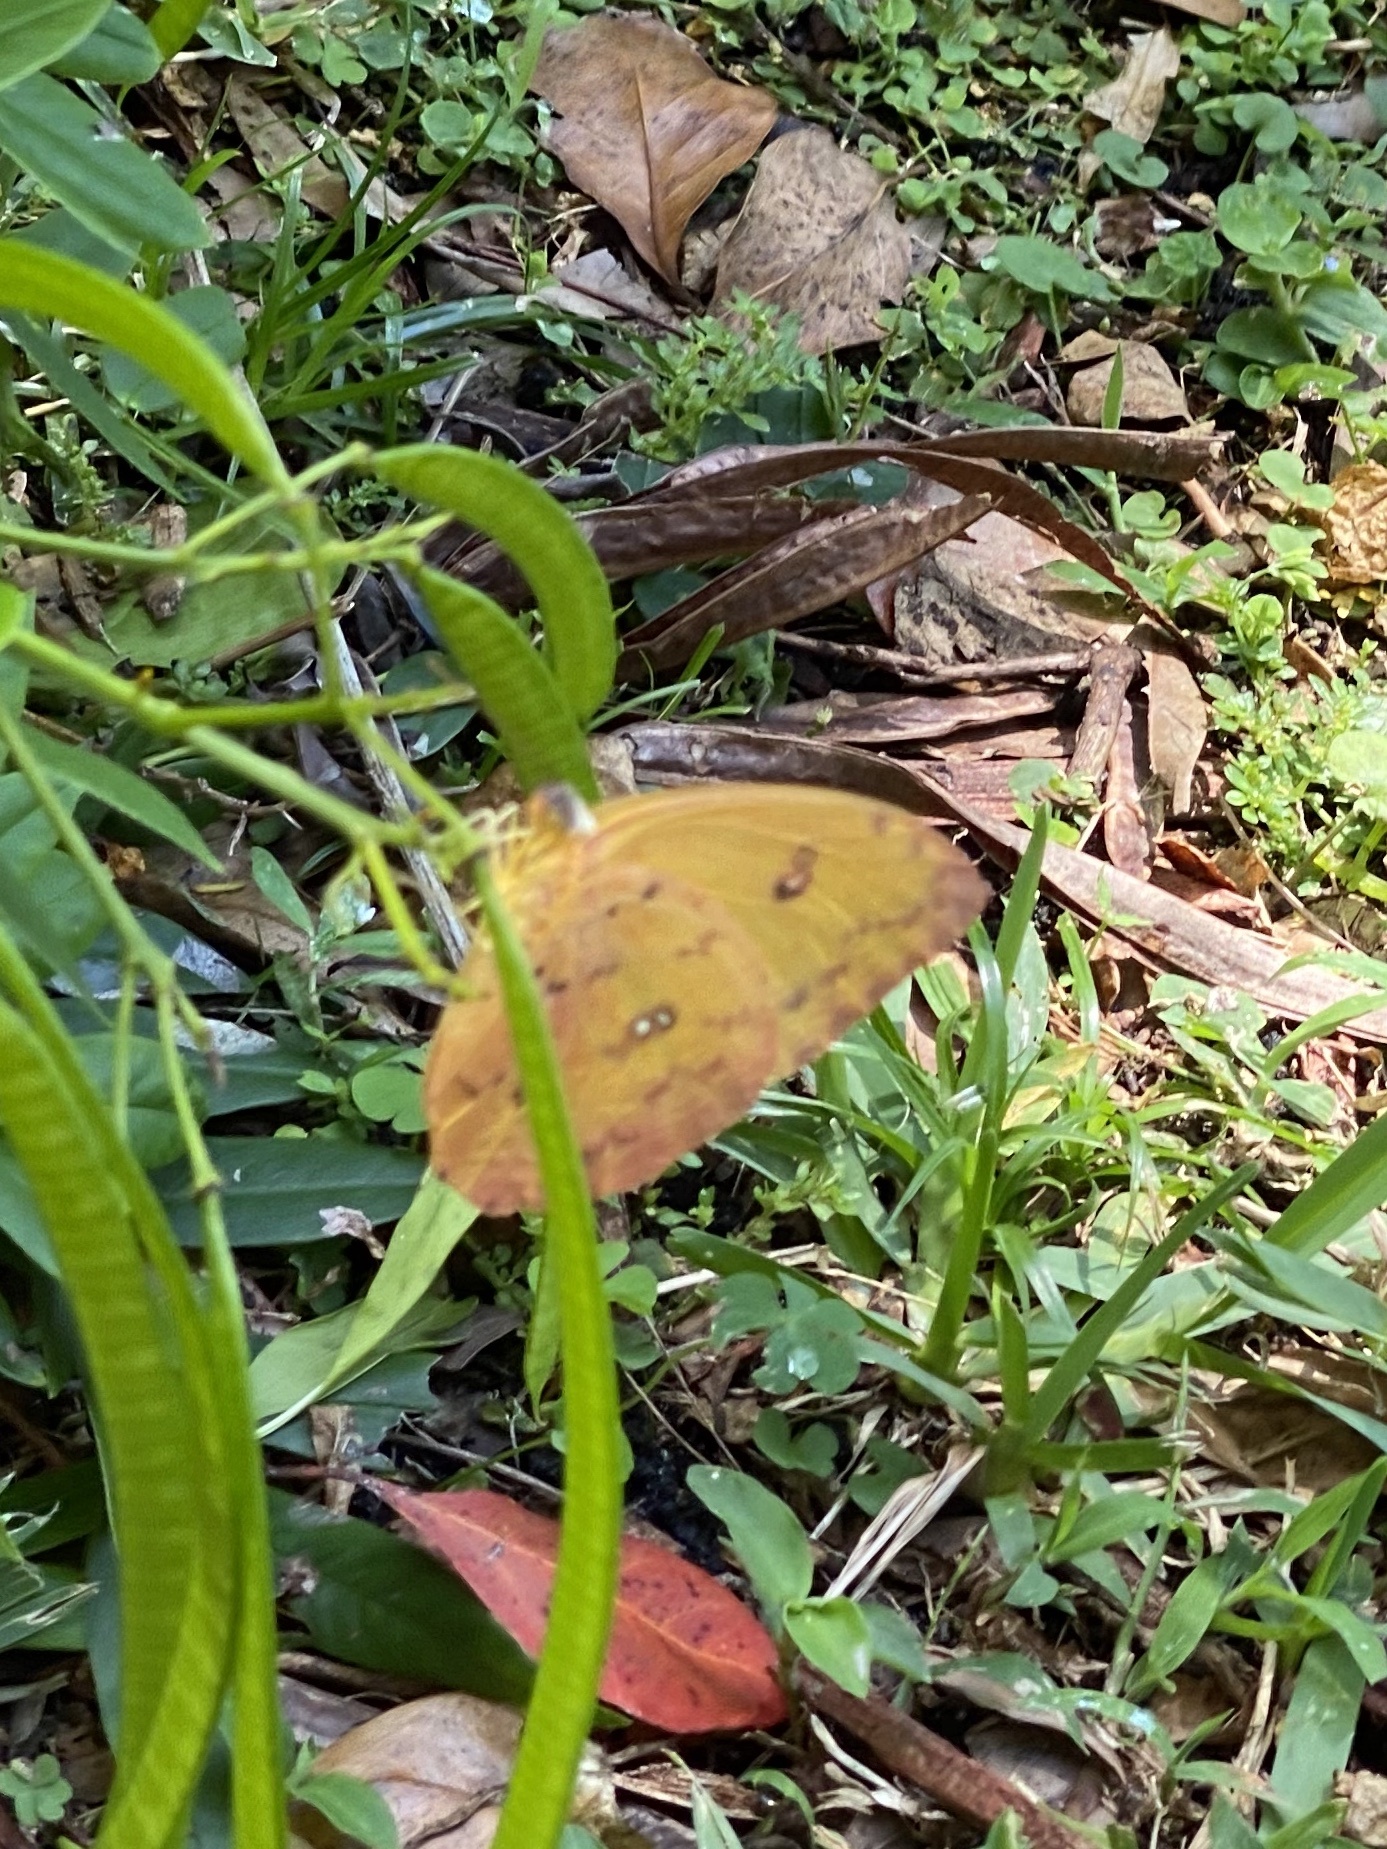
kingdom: Animalia
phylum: Arthropoda
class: Insecta
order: Lepidoptera
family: Pieridae
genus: Phoebis
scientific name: Phoebis philea
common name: Orange-barred giant sulphur
